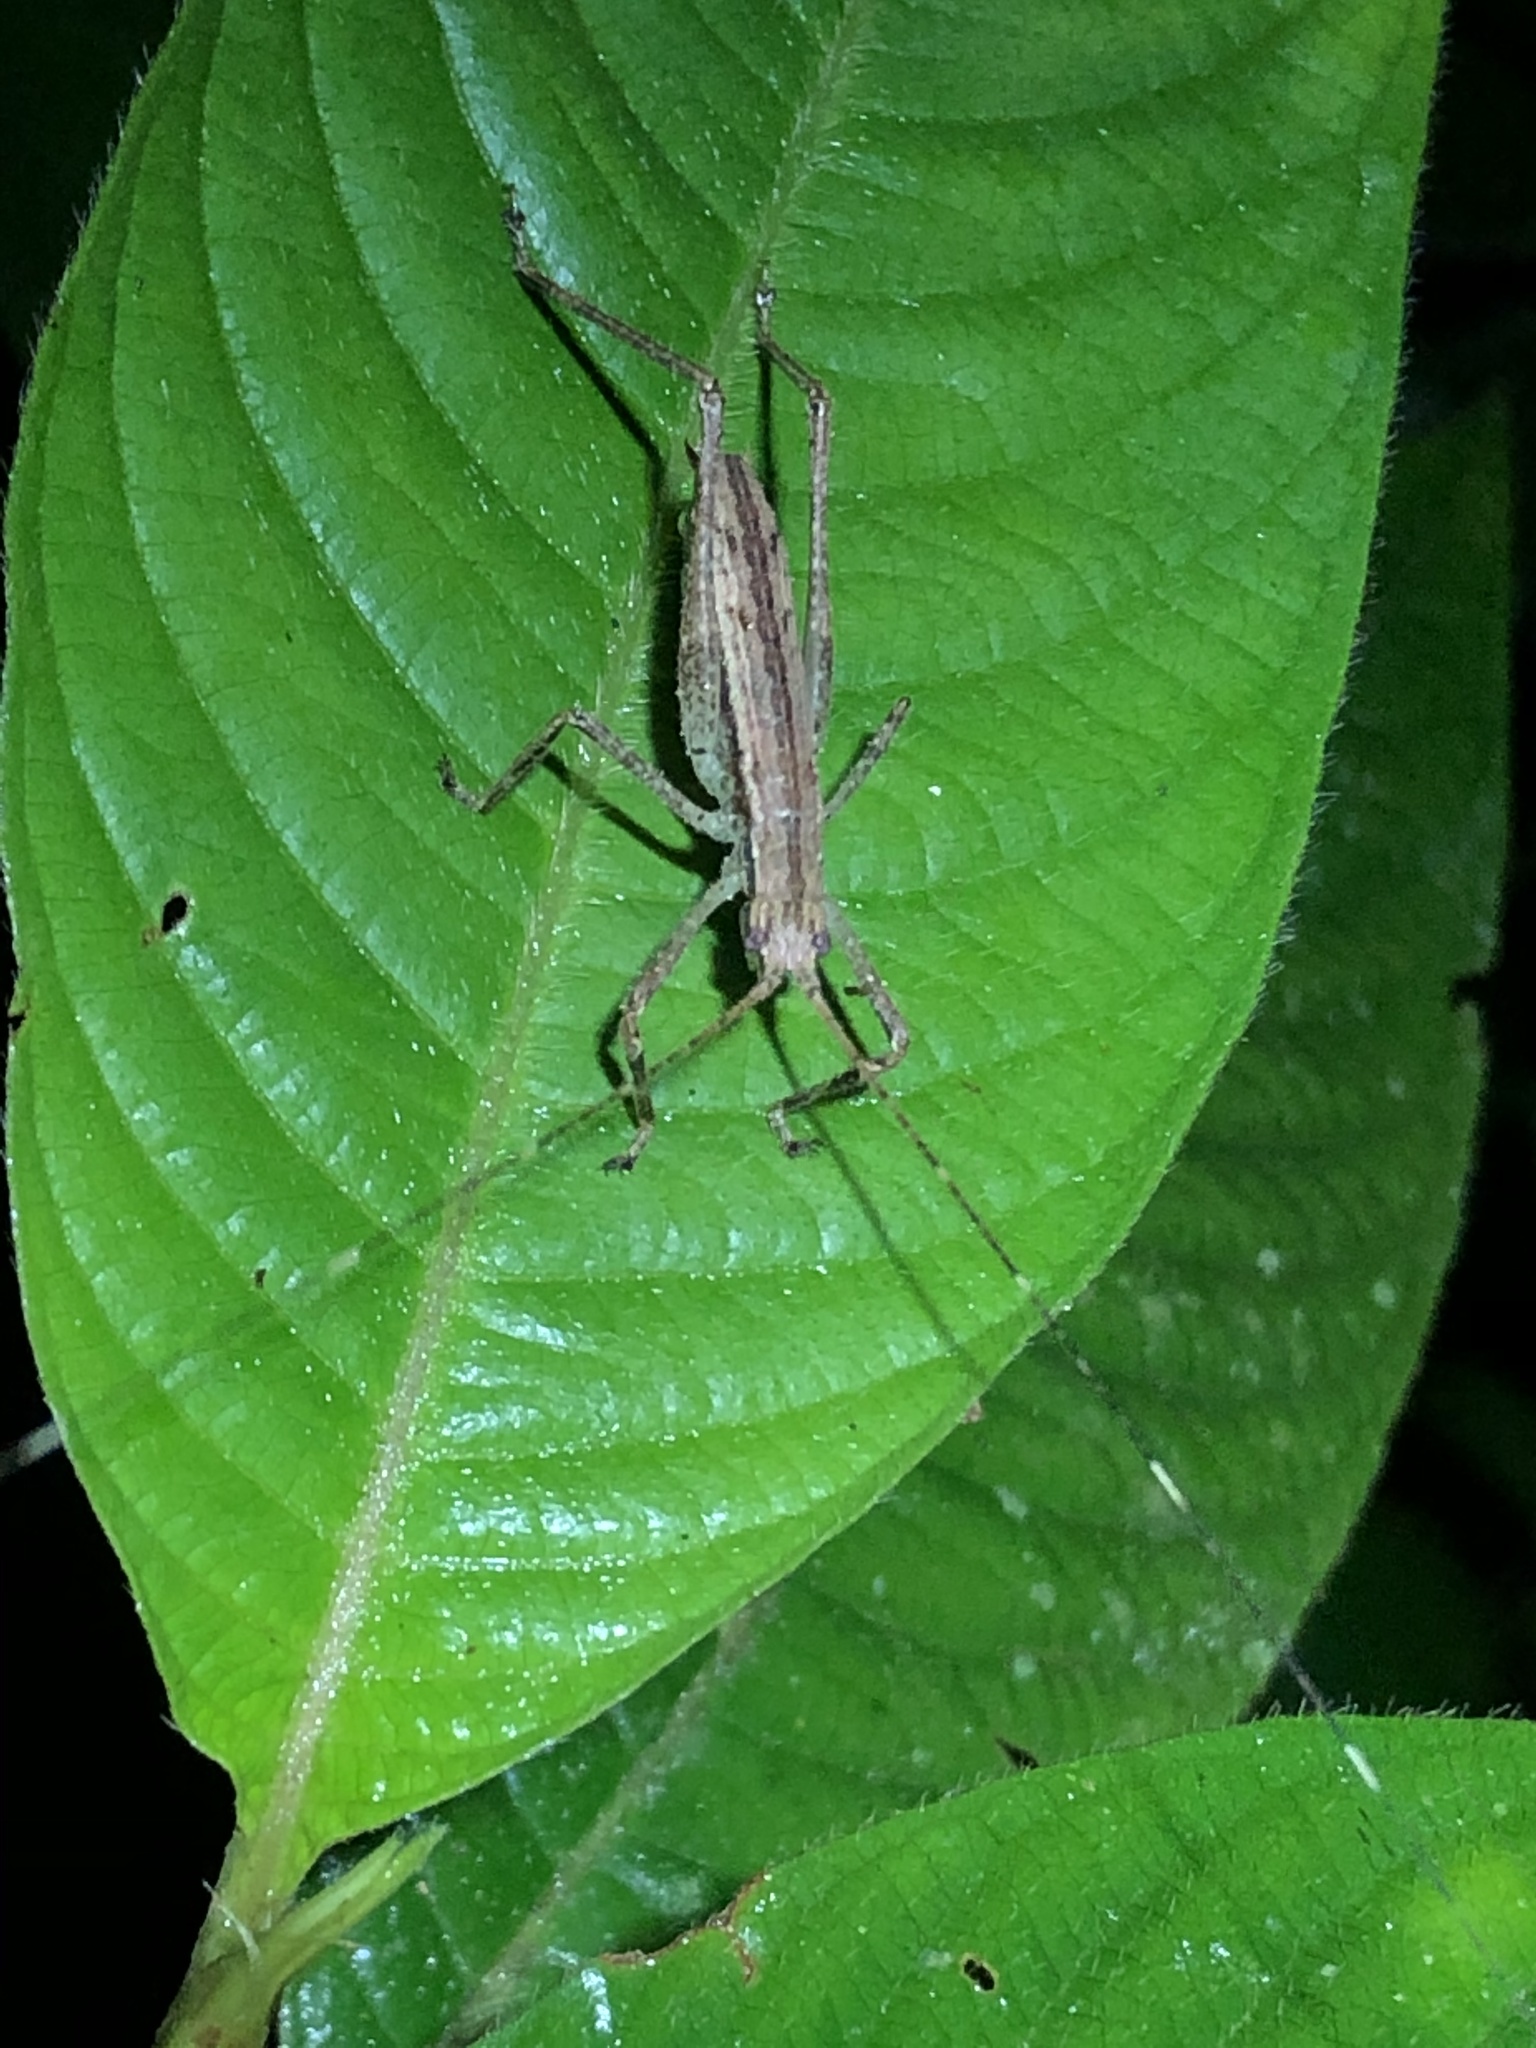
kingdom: Animalia
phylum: Arthropoda
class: Insecta
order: Orthoptera
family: Tettigoniidae
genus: Pedinothorax
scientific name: Pedinothorax exiguus
